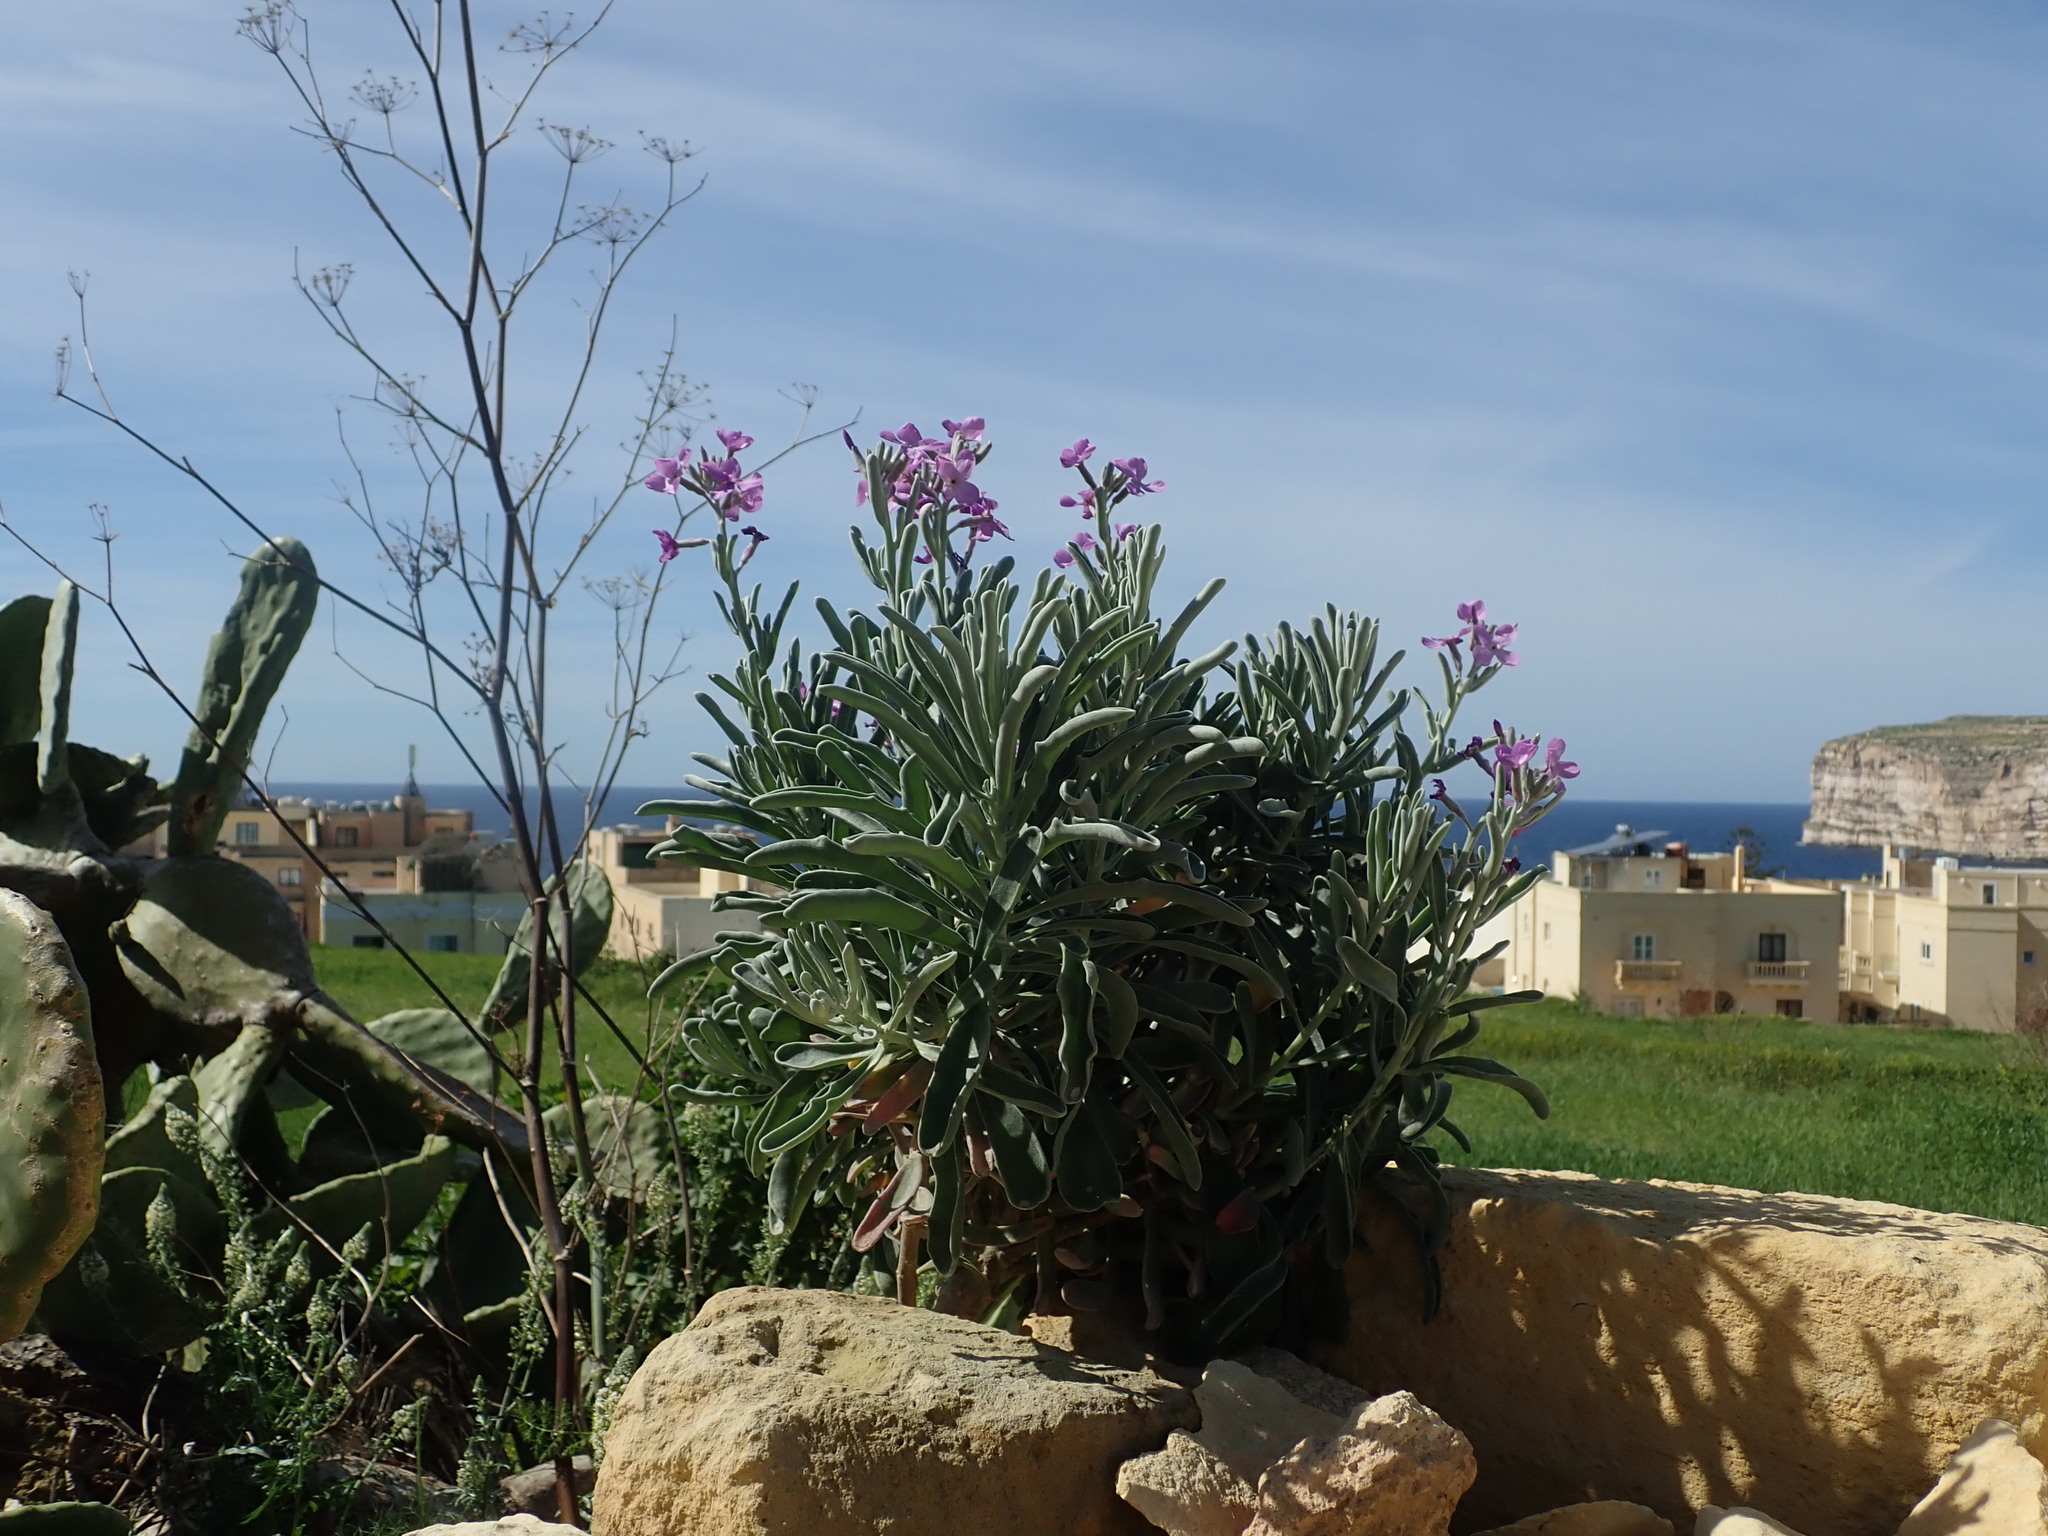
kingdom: Plantae
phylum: Tracheophyta
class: Magnoliopsida
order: Brassicales
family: Brassicaceae
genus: Matthiola
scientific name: Matthiola incana
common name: Hoary stock
